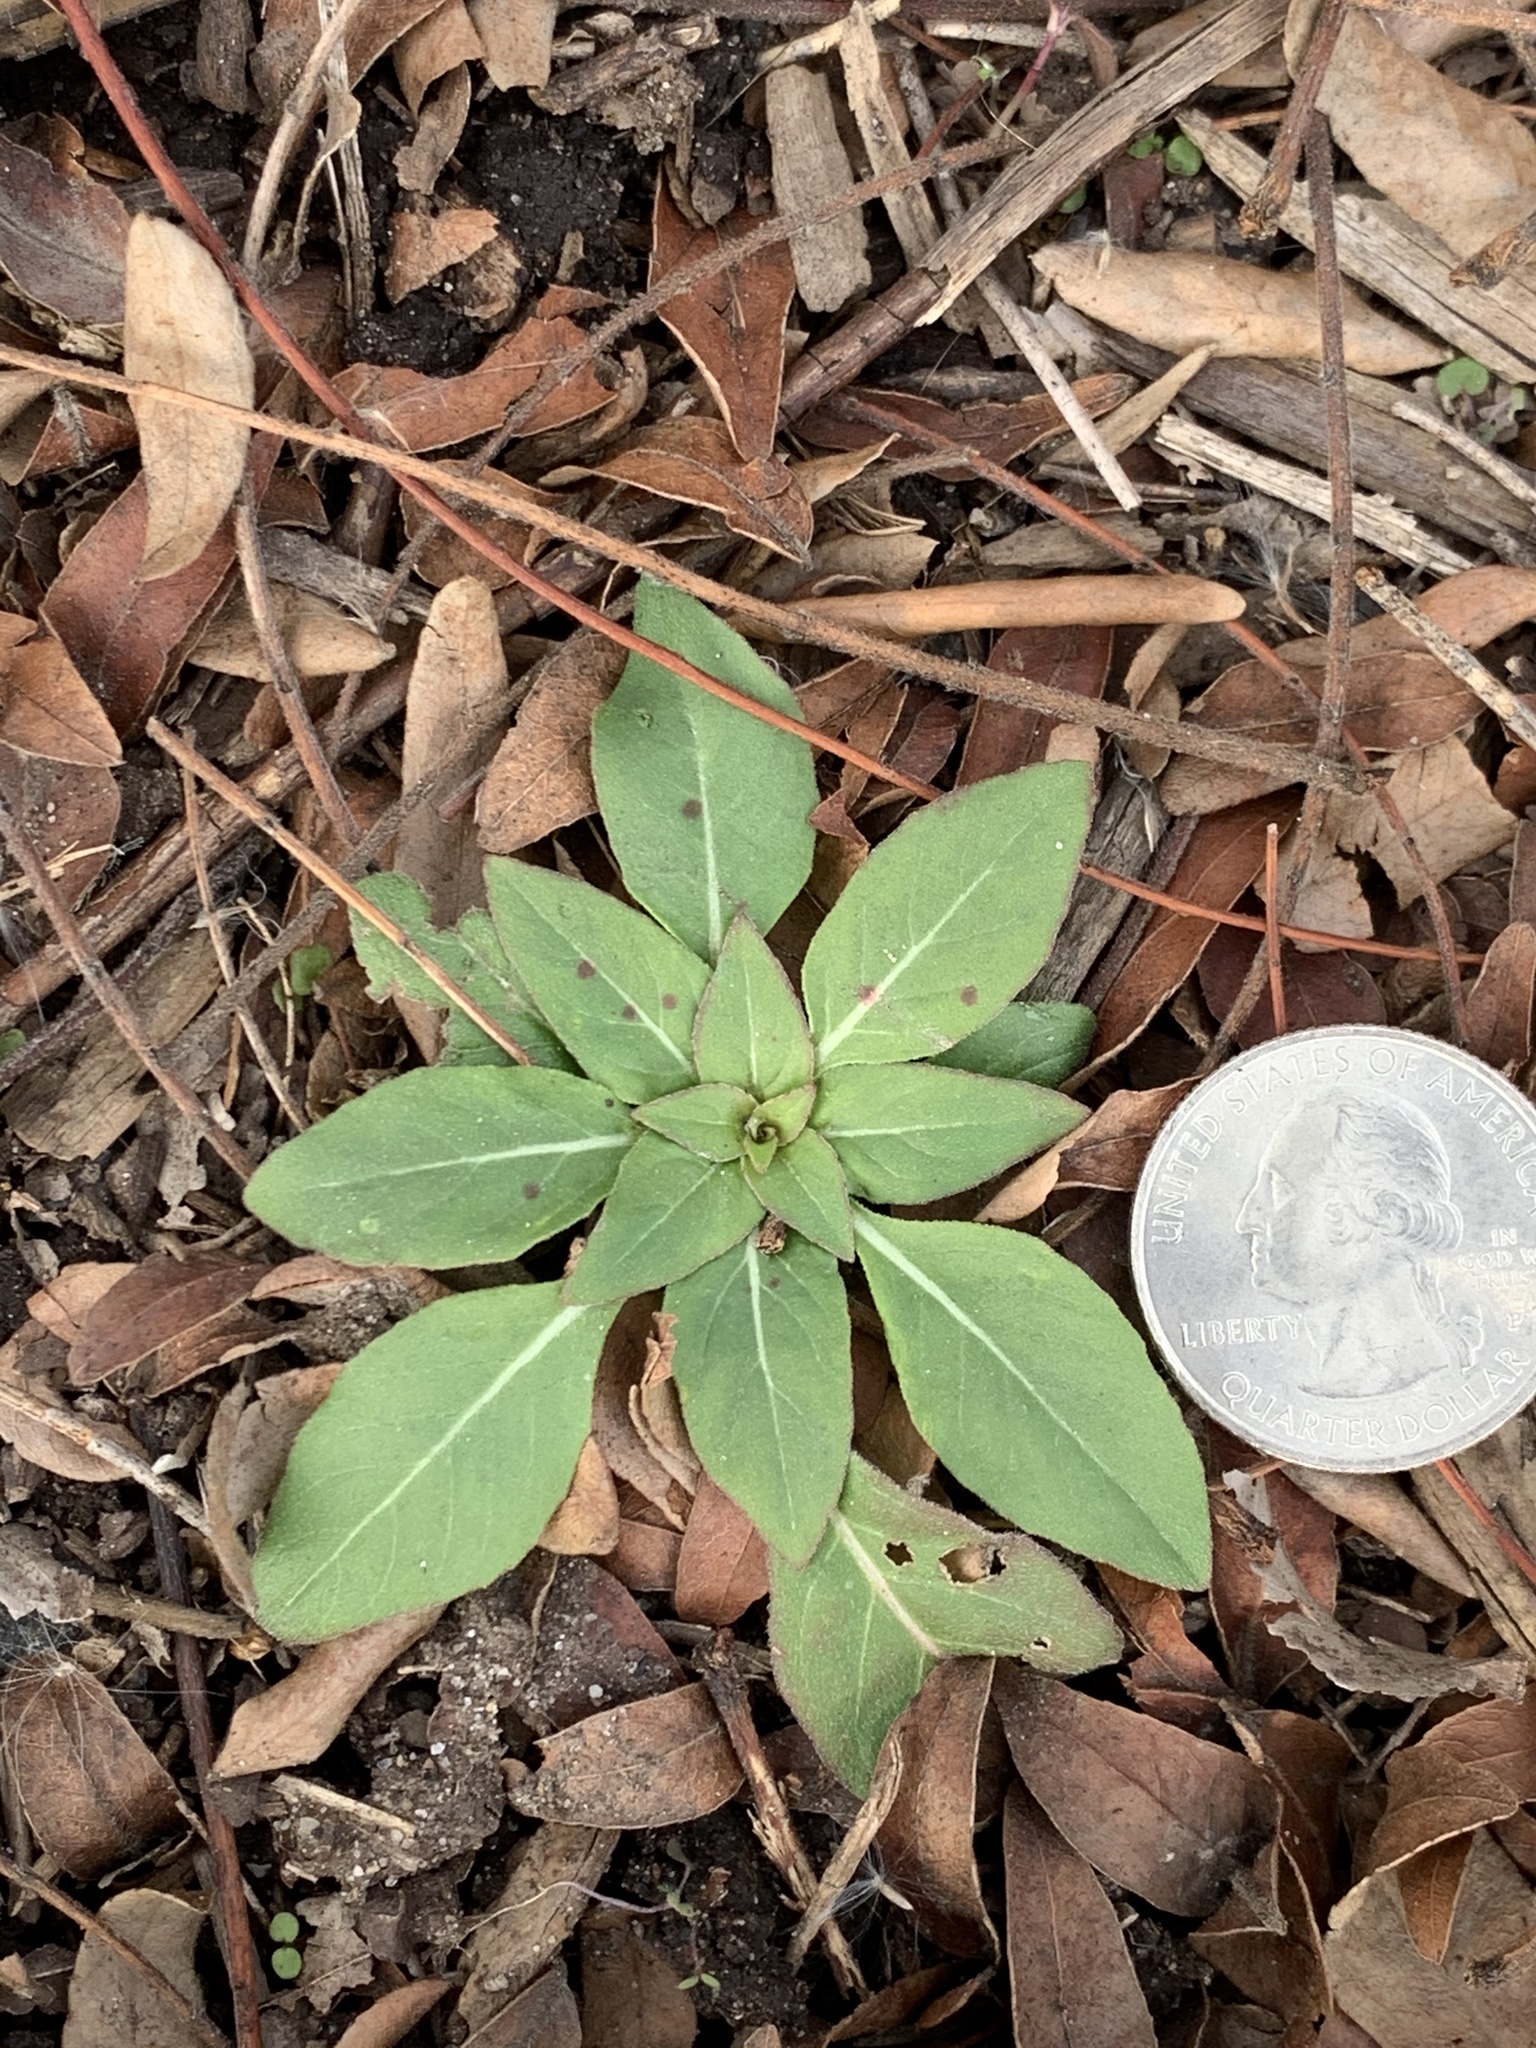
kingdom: Plantae
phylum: Tracheophyta
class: Magnoliopsida
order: Myrtales
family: Onagraceae
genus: Oenothera
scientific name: Oenothera biennis
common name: Common evening-primrose
